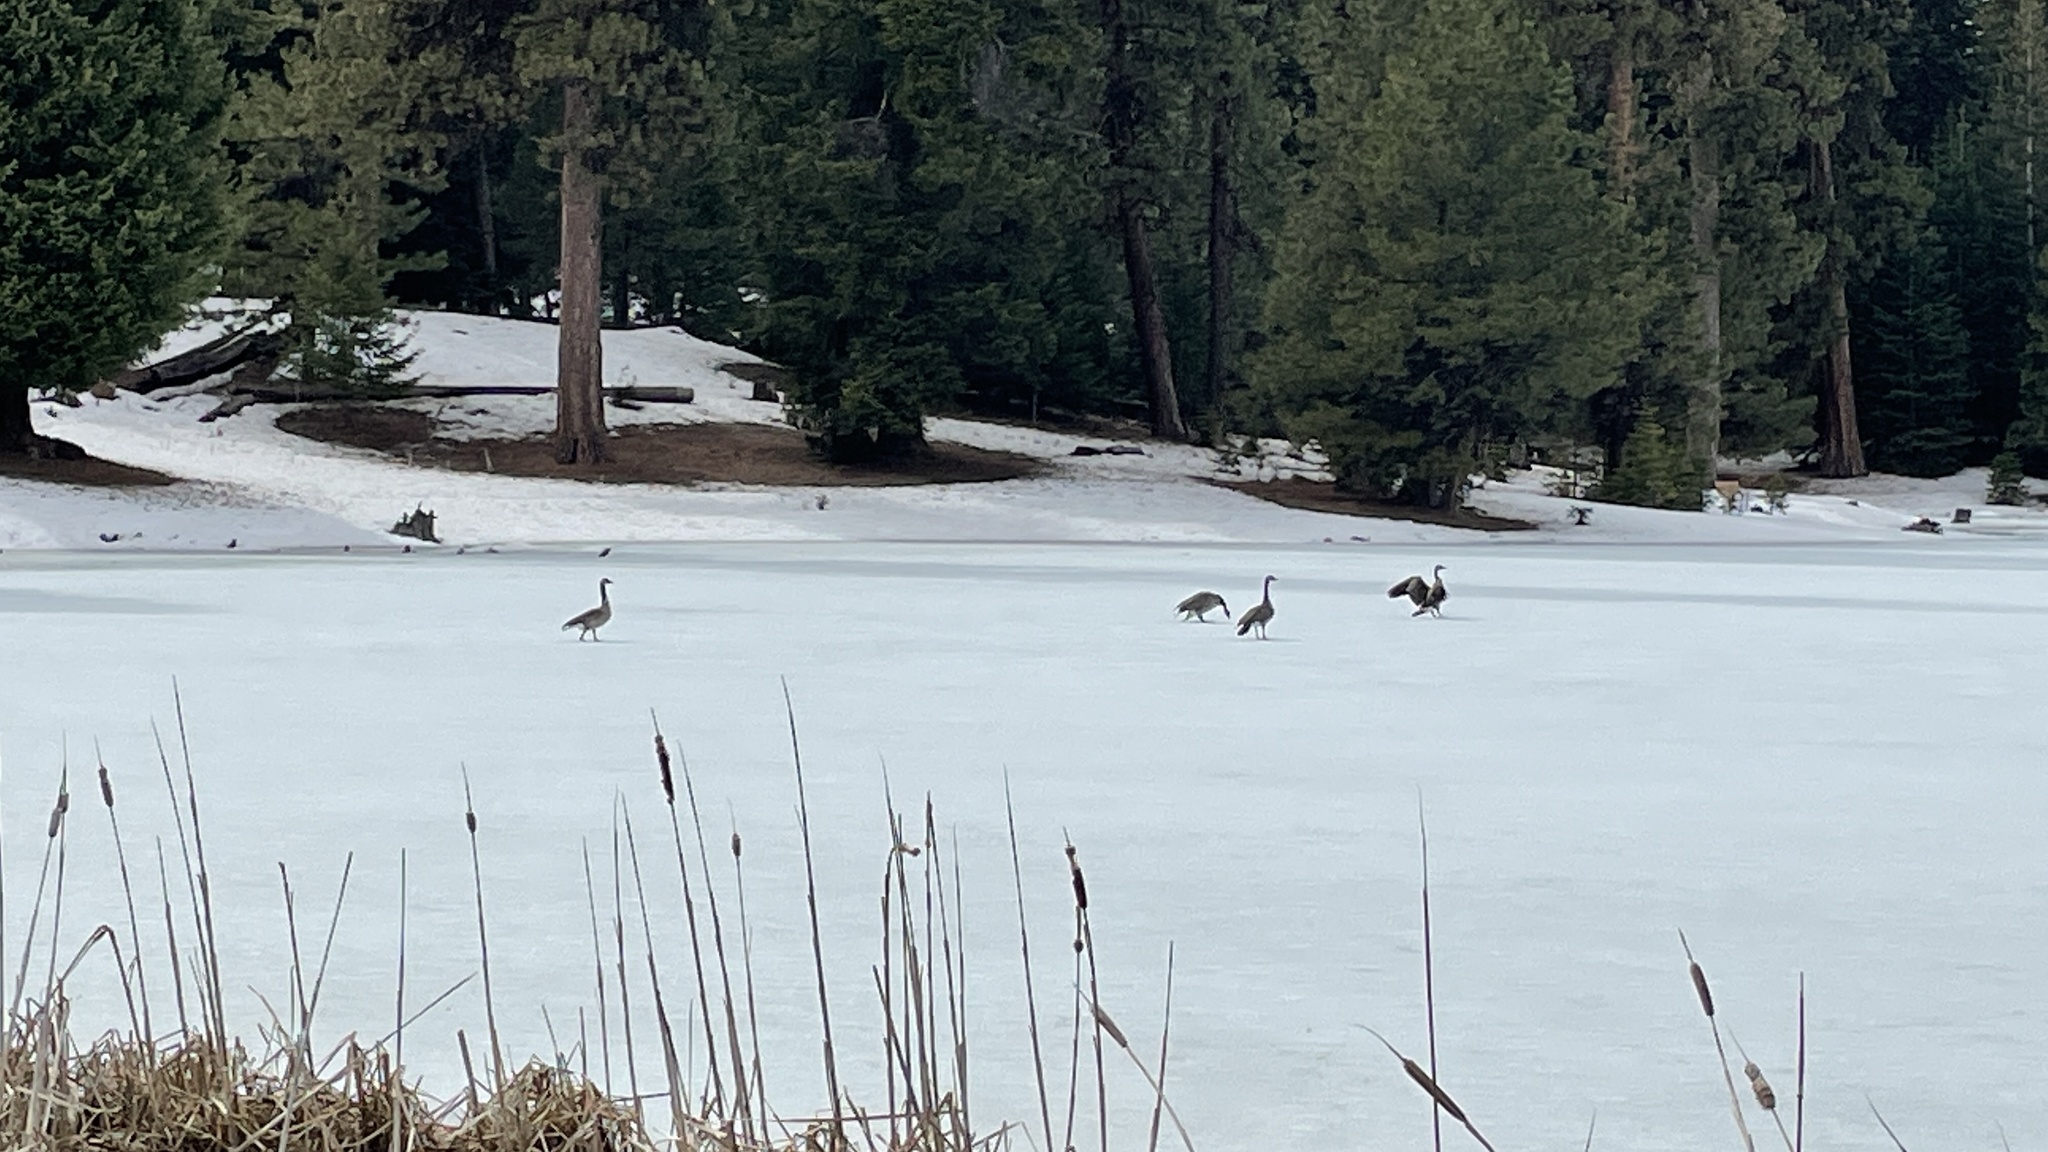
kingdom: Animalia
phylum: Chordata
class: Aves
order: Anseriformes
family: Anatidae
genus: Branta
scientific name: Branta canadensis
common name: Canada goose
